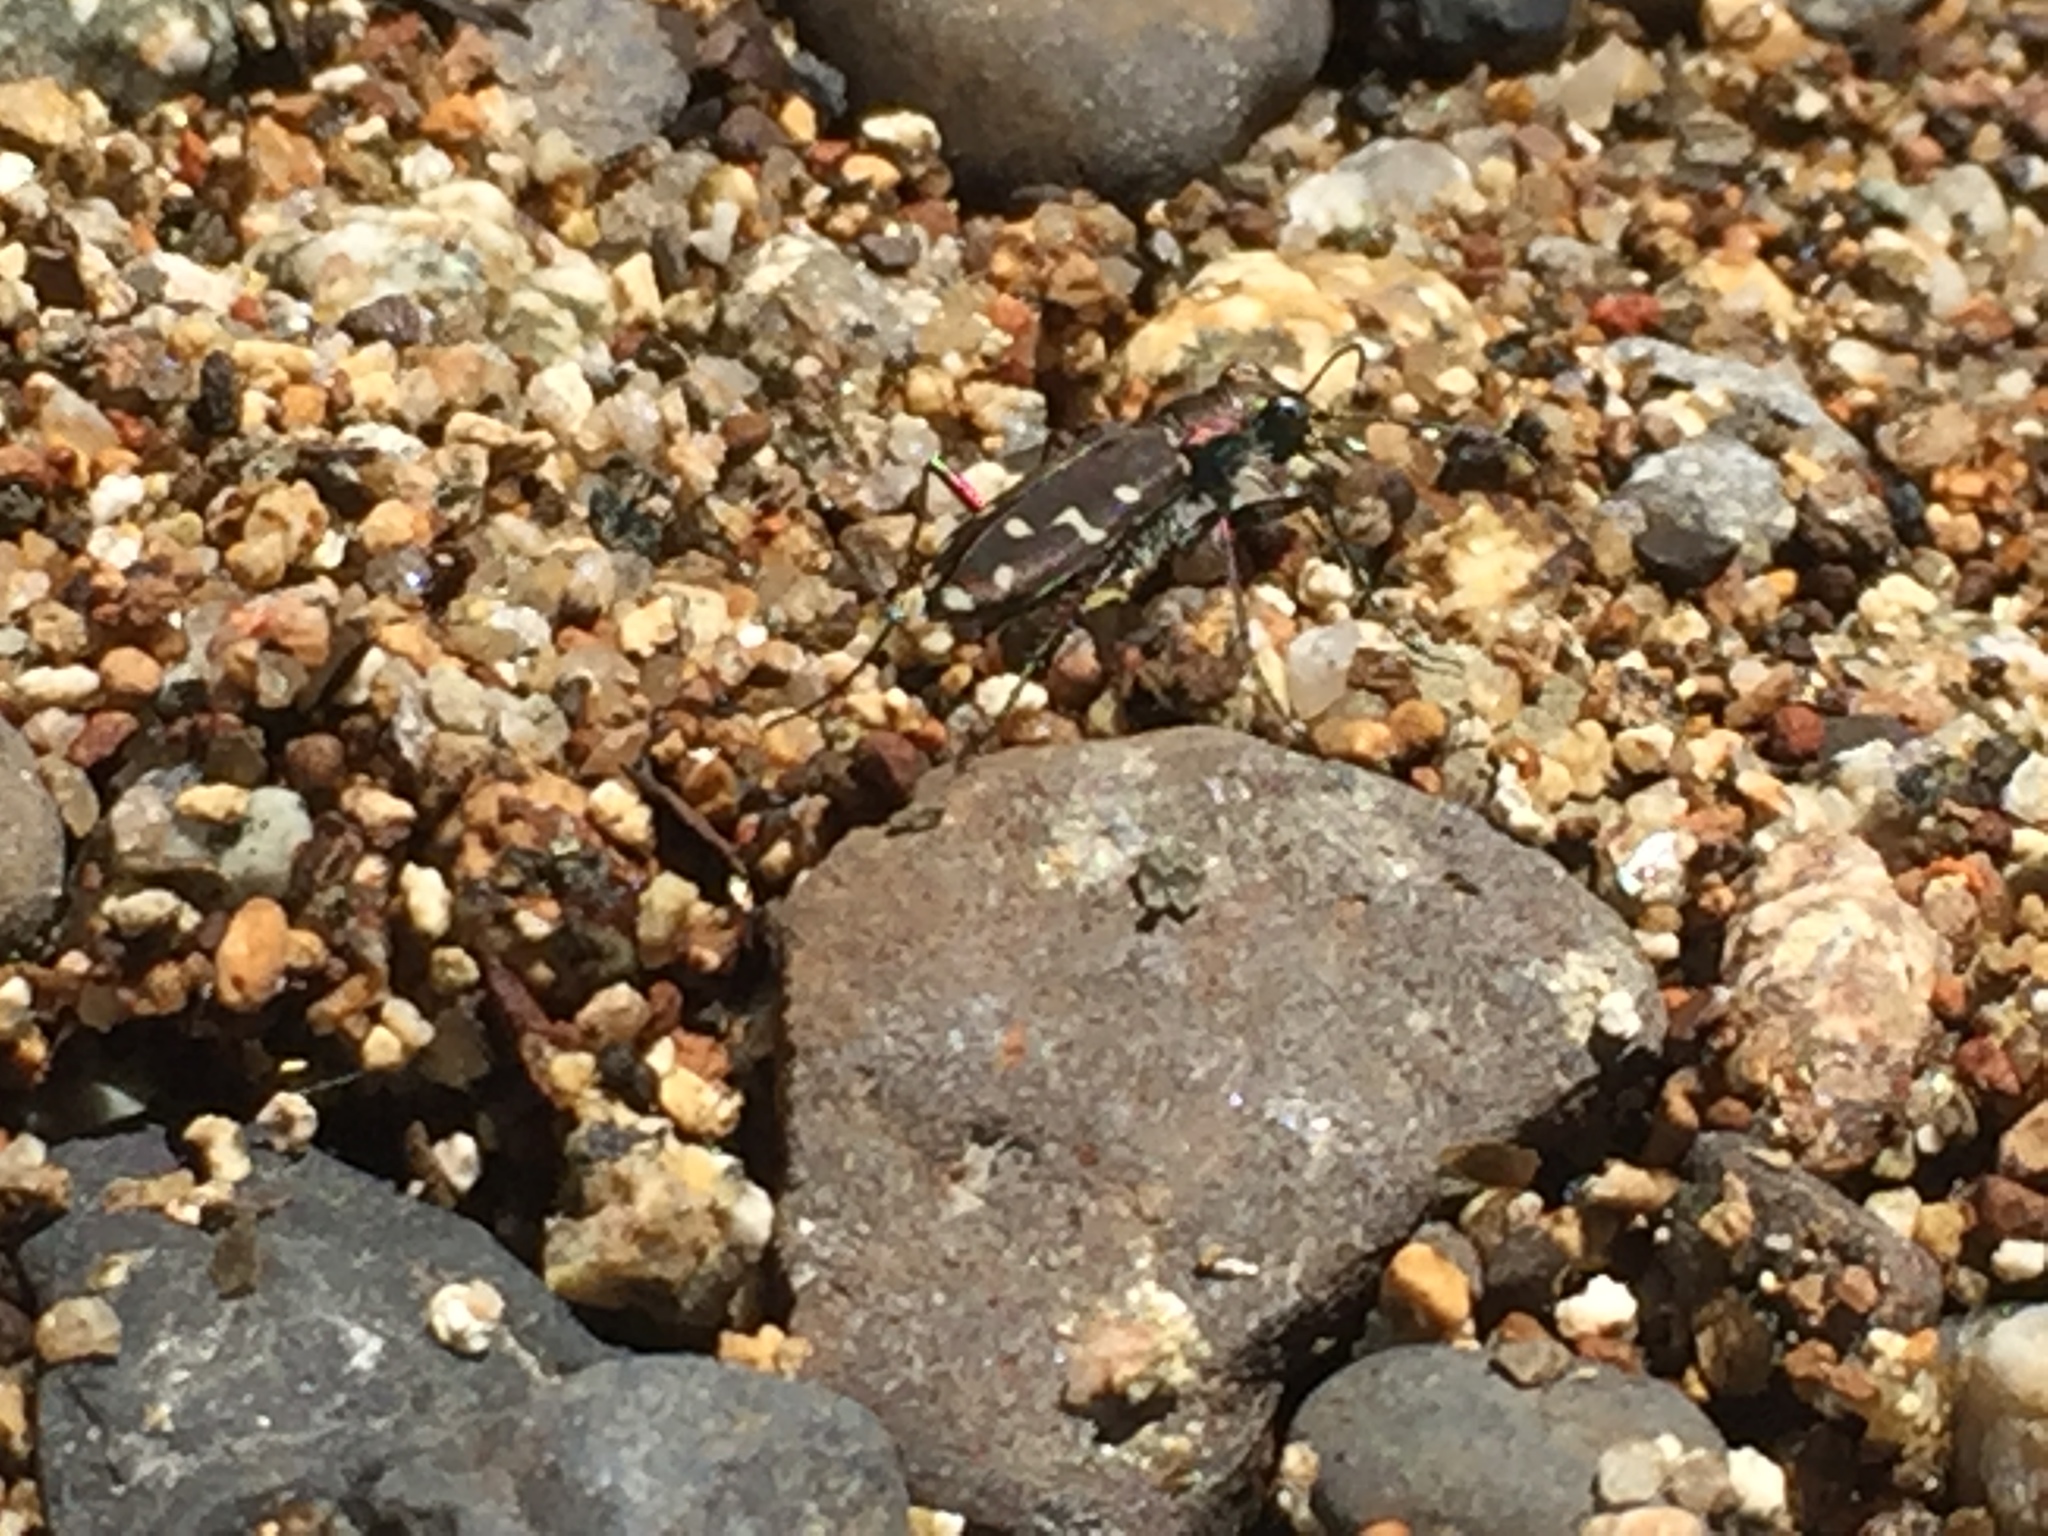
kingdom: Animalia
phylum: Arthropoda
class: Insecta
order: Coleoptera
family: Carabidae
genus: Cicindela
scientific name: Cicindela oregona
